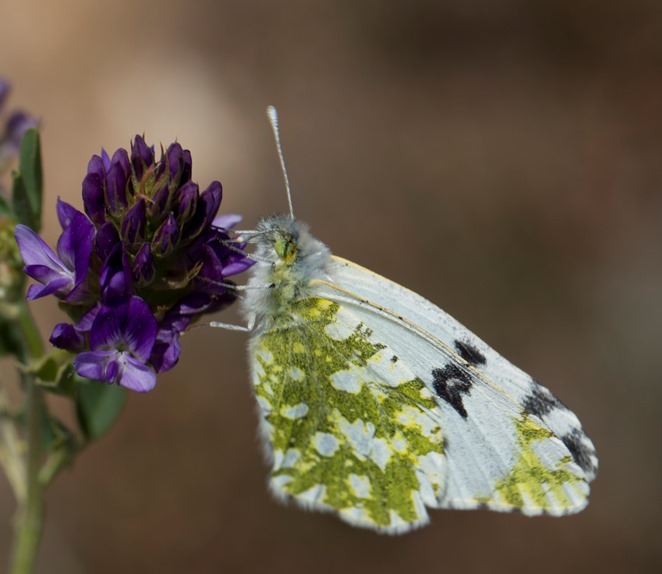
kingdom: Animalia
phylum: Arthropoda
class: Insecta
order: Lepidoptera
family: Pieridae
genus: Euchloe
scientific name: Euchloe crameri
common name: Western dappled white
